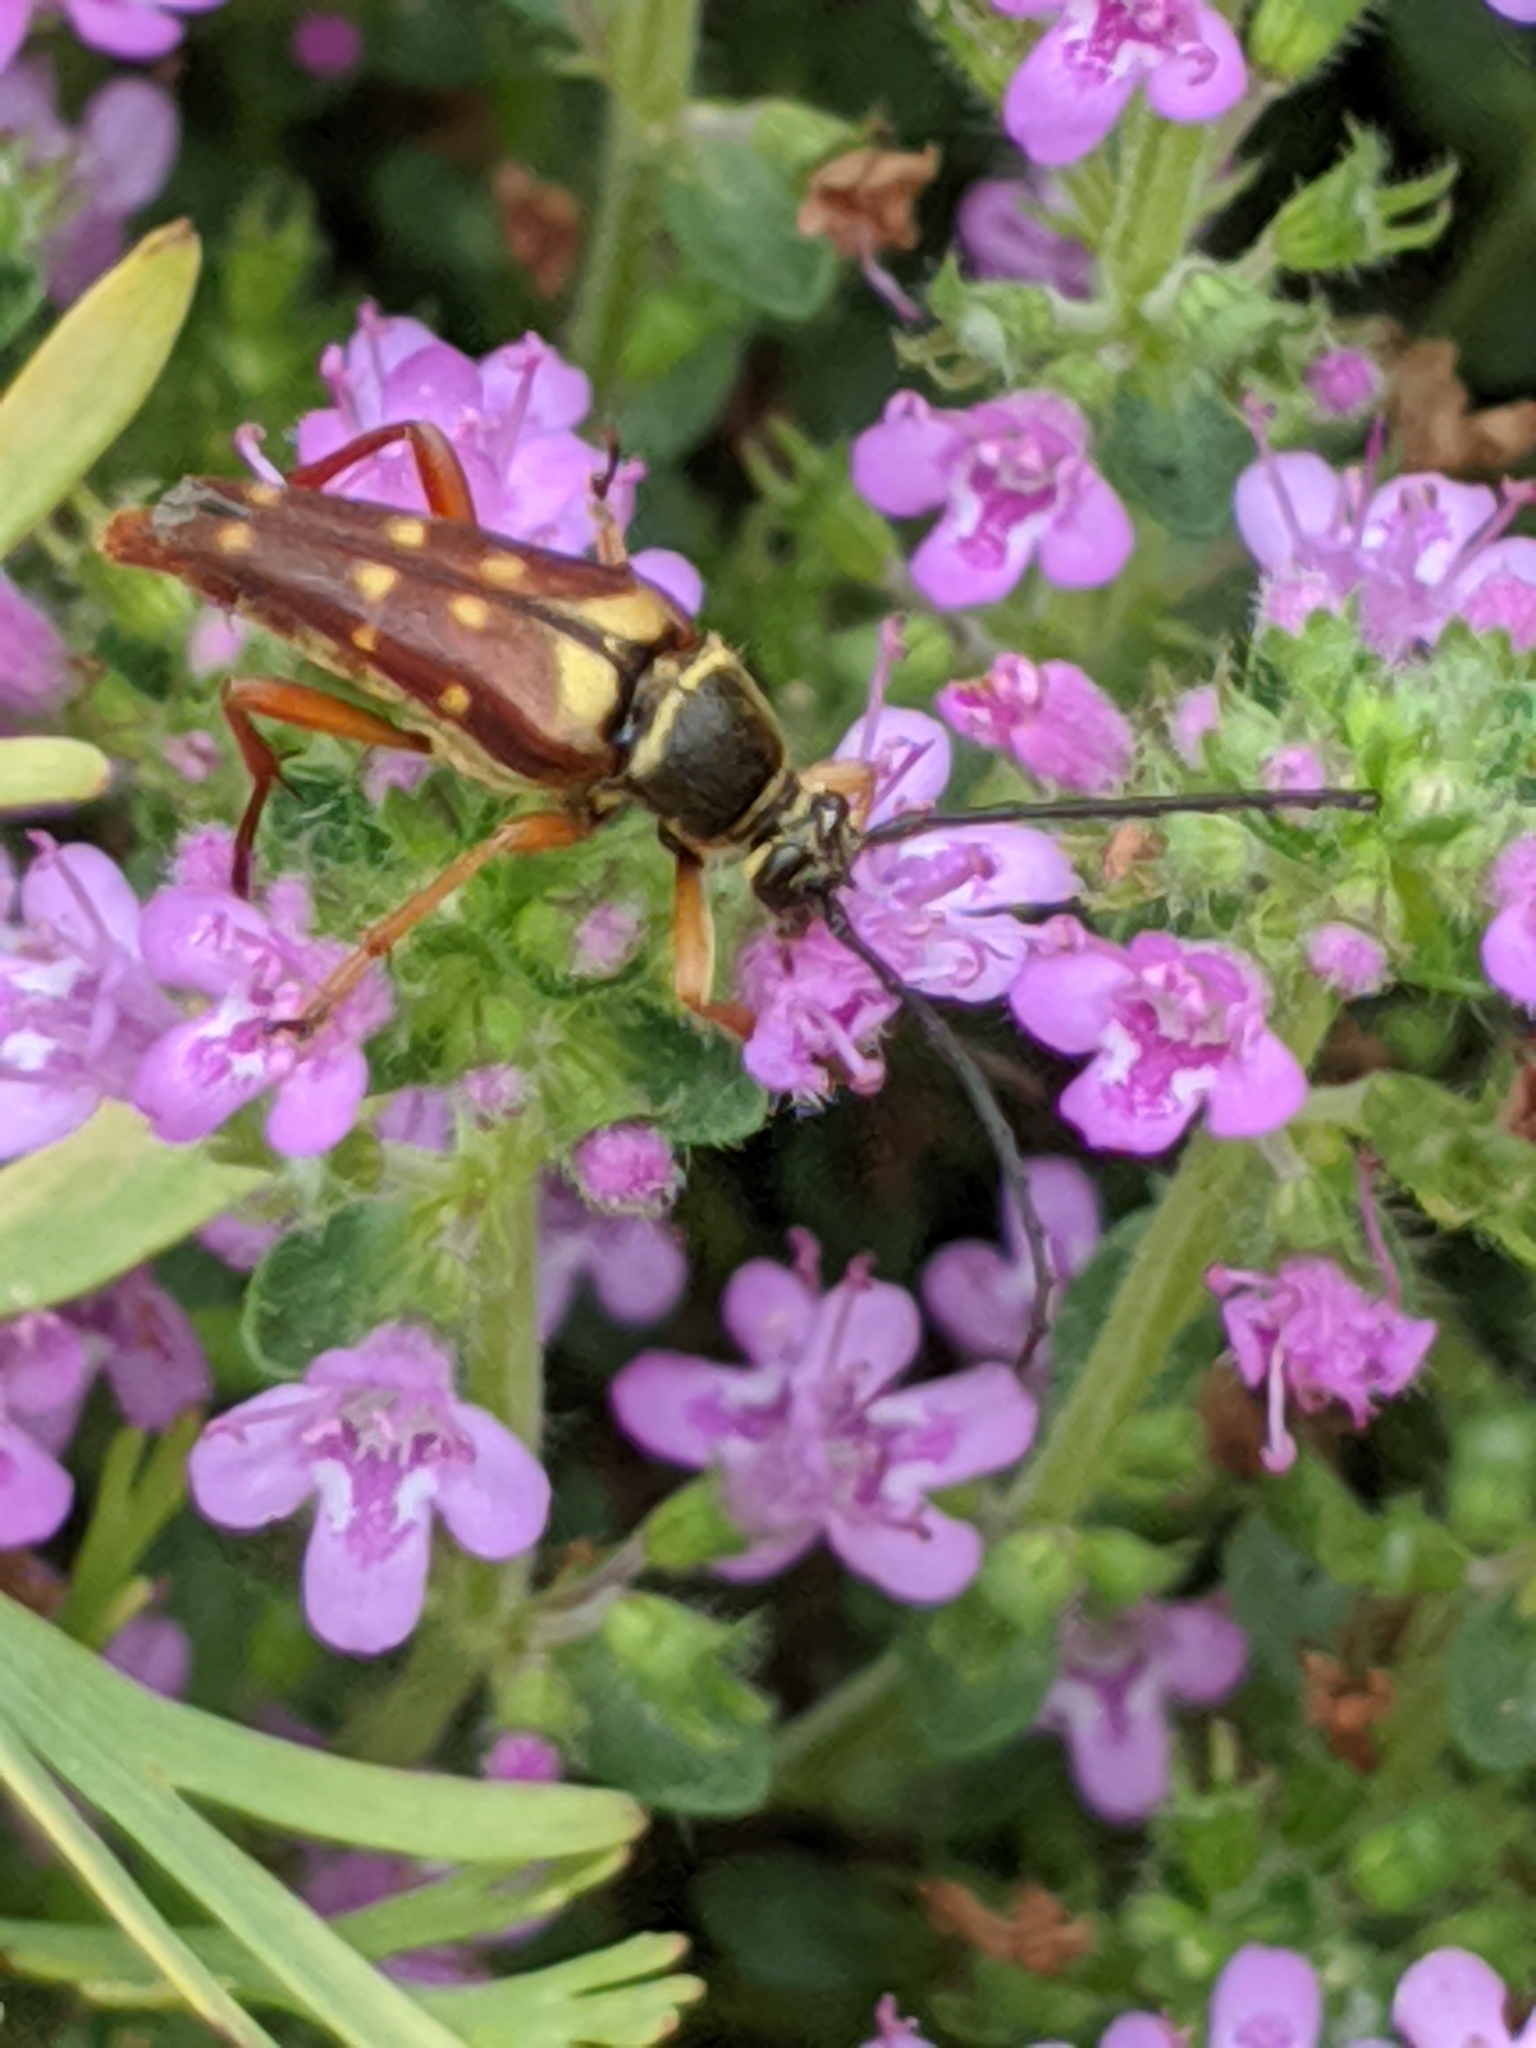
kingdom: Animalia
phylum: Arthropoda
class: Insecta
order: Coleoptera
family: Cerambycidae
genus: Typocerus
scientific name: Typocerus velutinus
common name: Banded longhorn beetle
